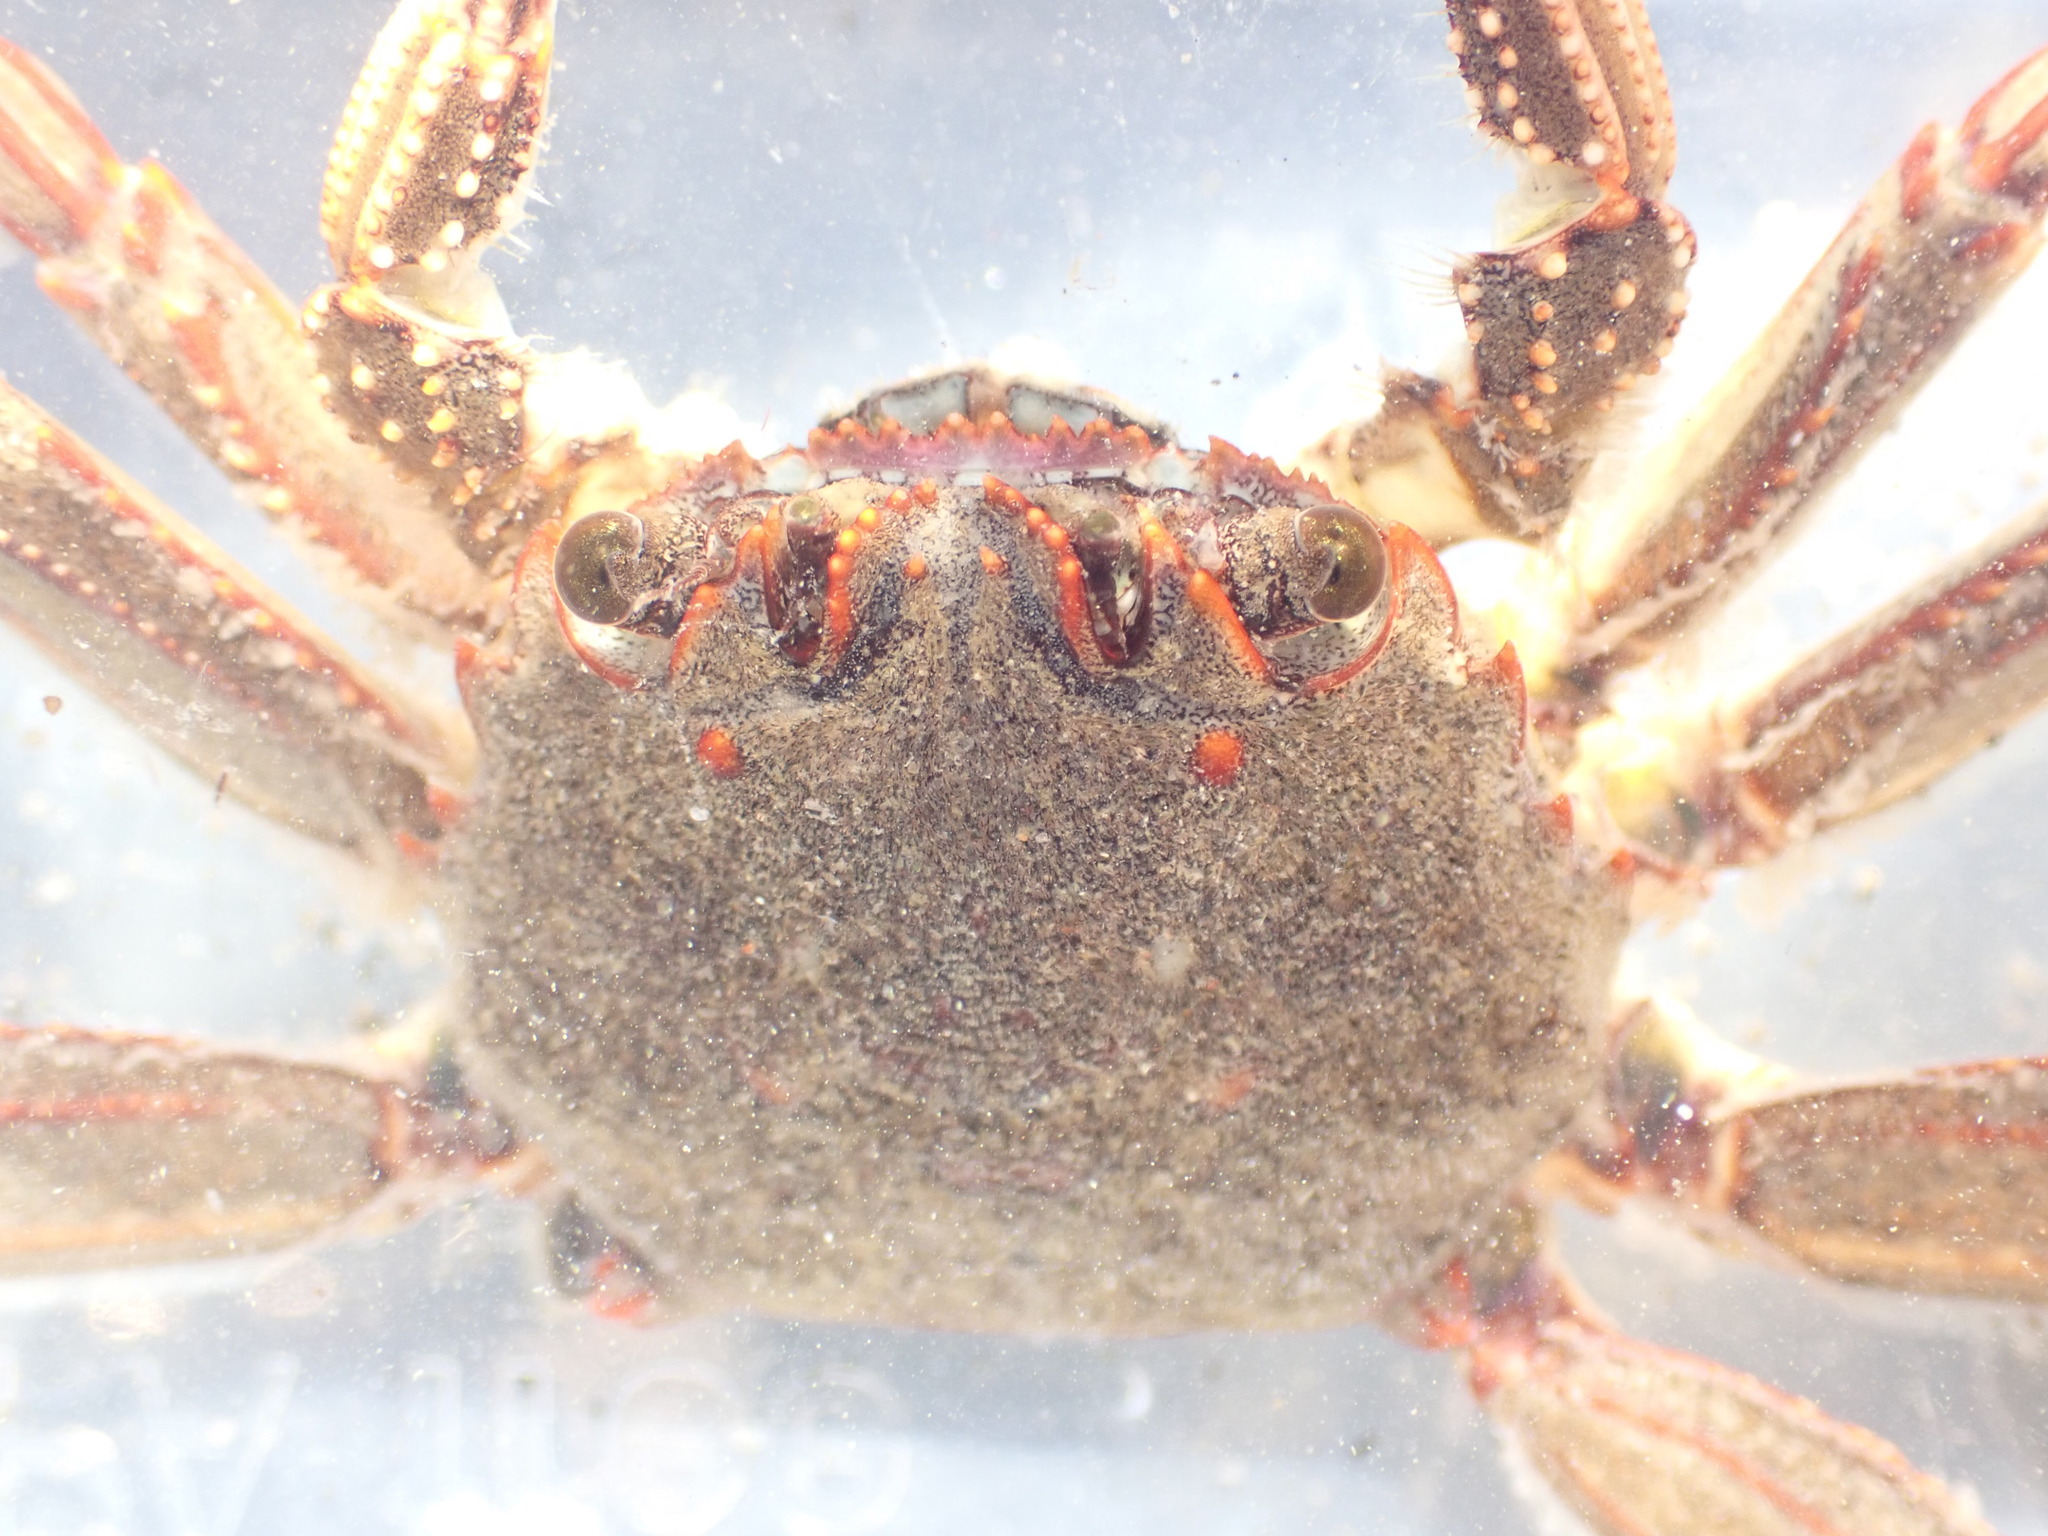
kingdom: Animalia
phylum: Arthropoda
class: Malacostraca
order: Decapoda
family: Plagusiidae
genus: Guinusia
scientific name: Guinusia chabrus
